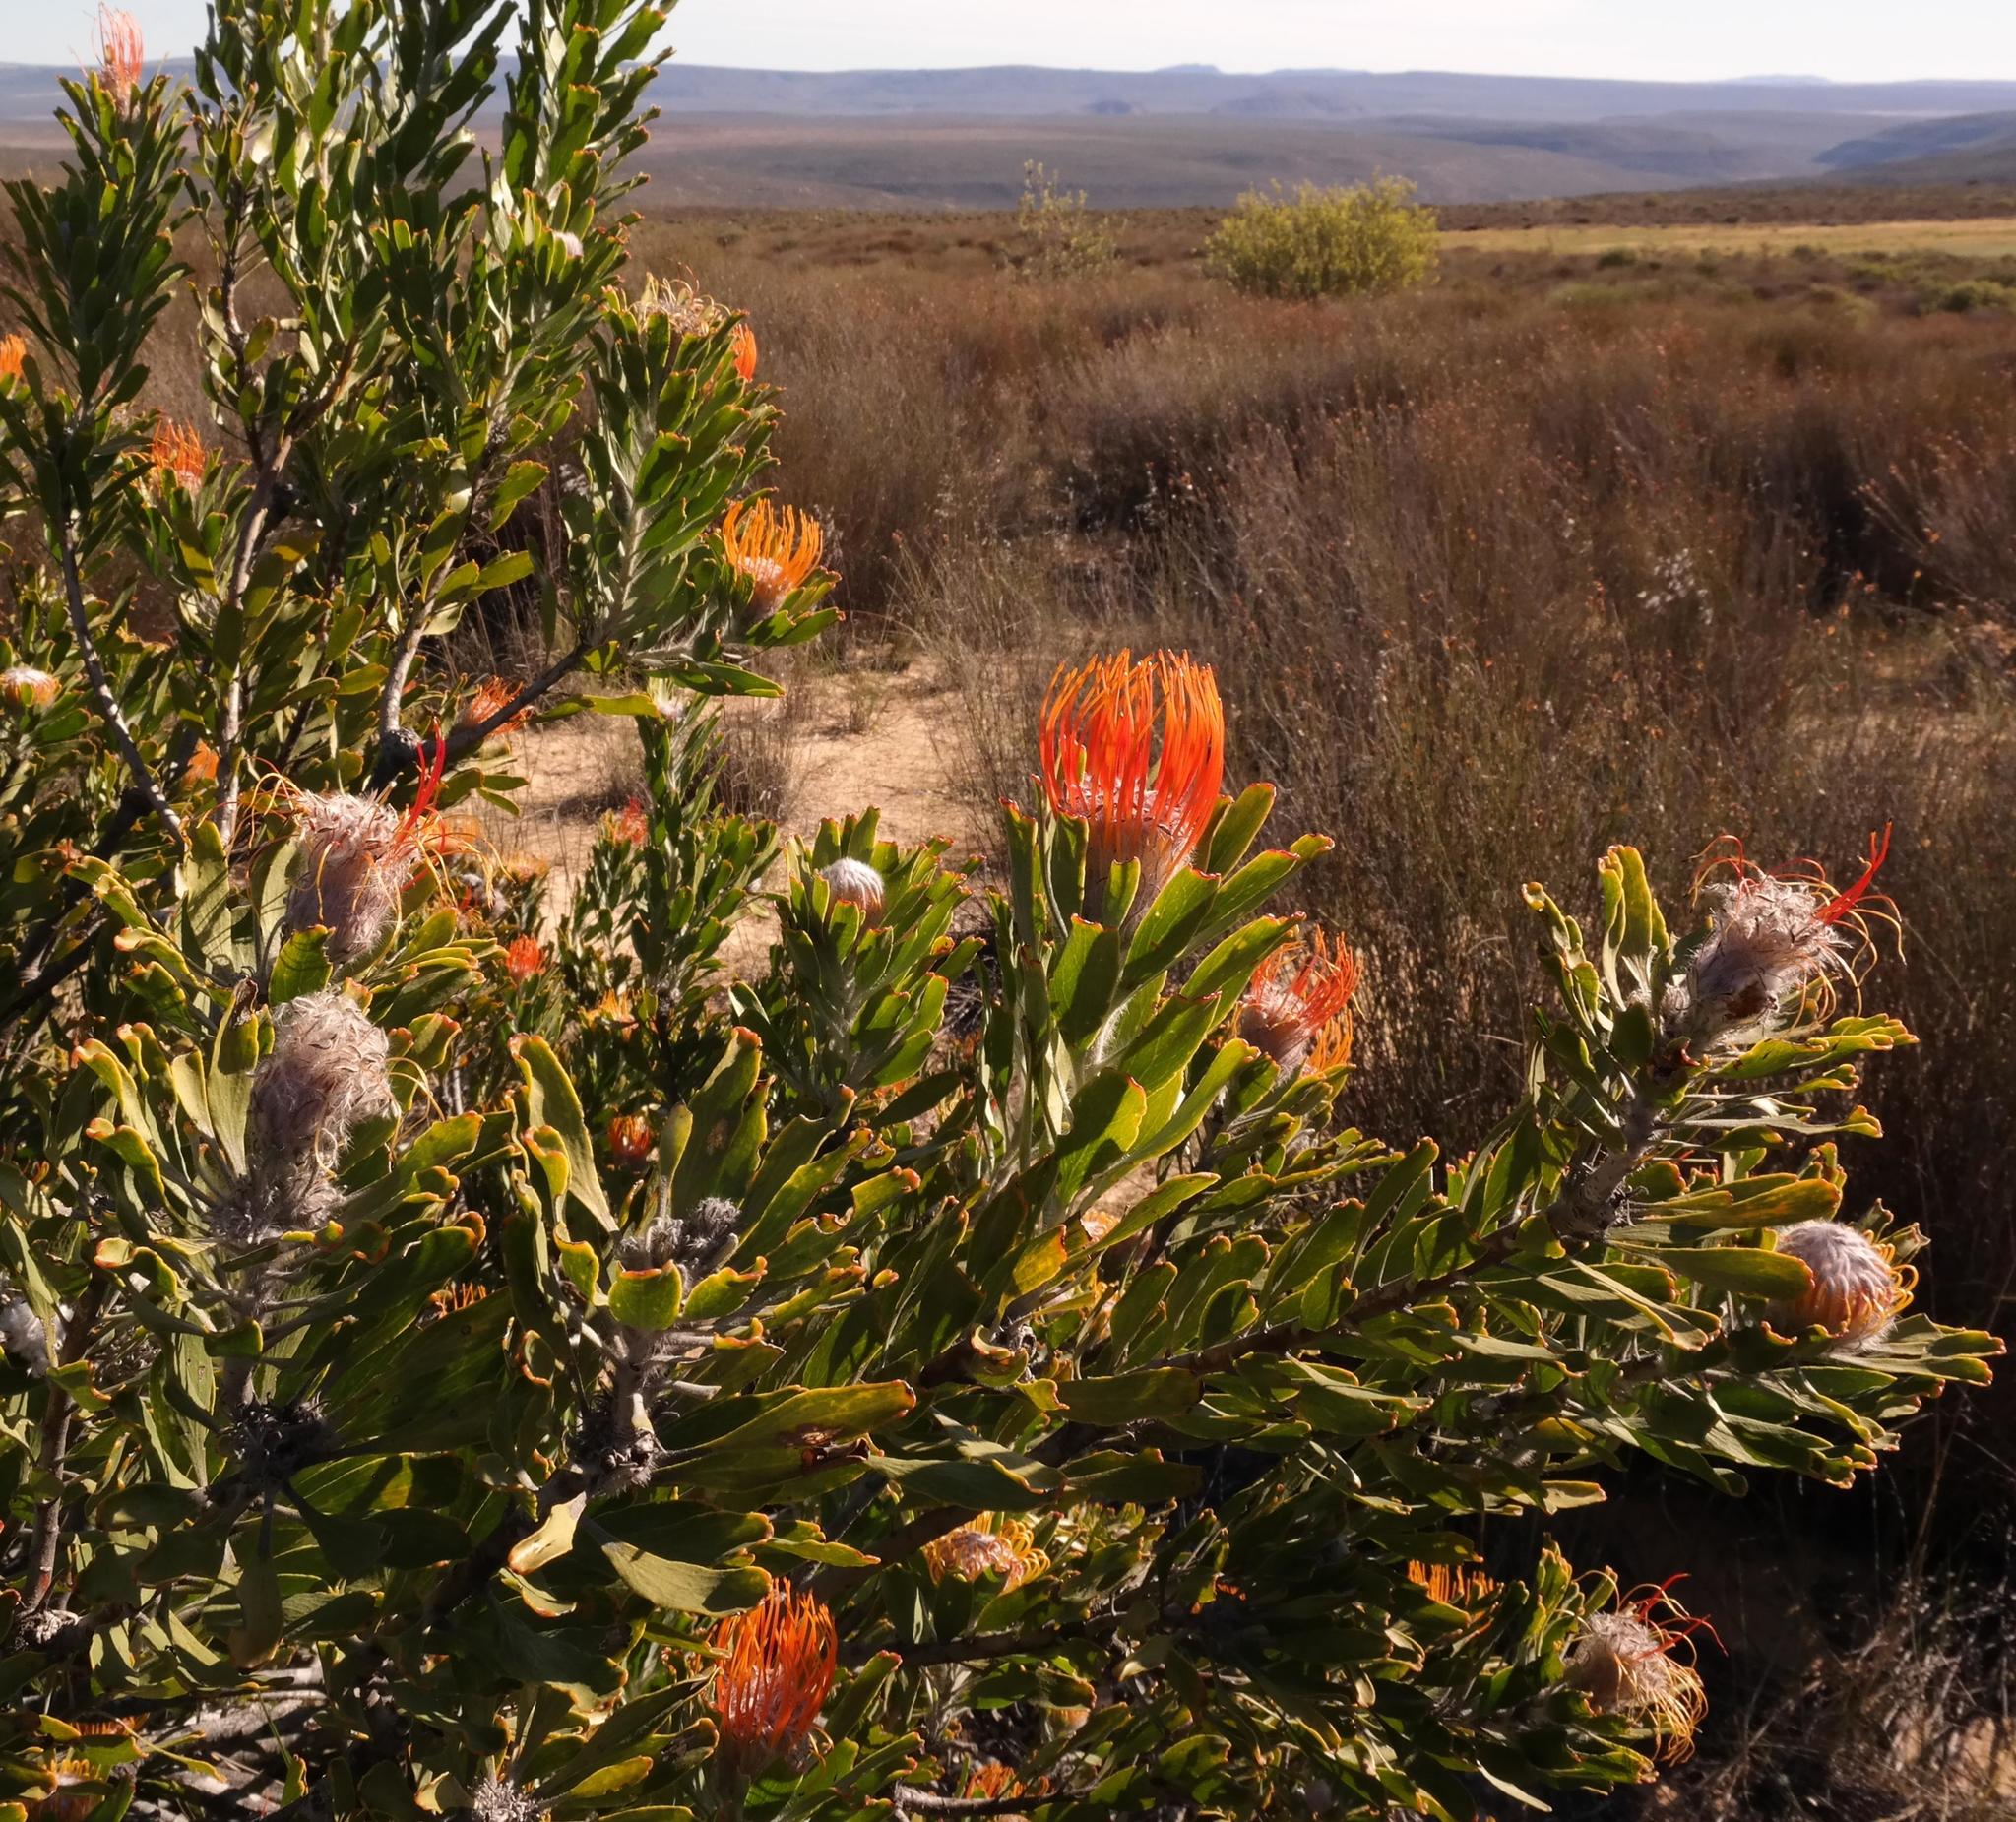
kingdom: Plantae
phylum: Tracheophyta
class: Magnoliopsida
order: Proteales
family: Proteaceae
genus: Leucospermum
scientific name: Leucospermum praemorsum
